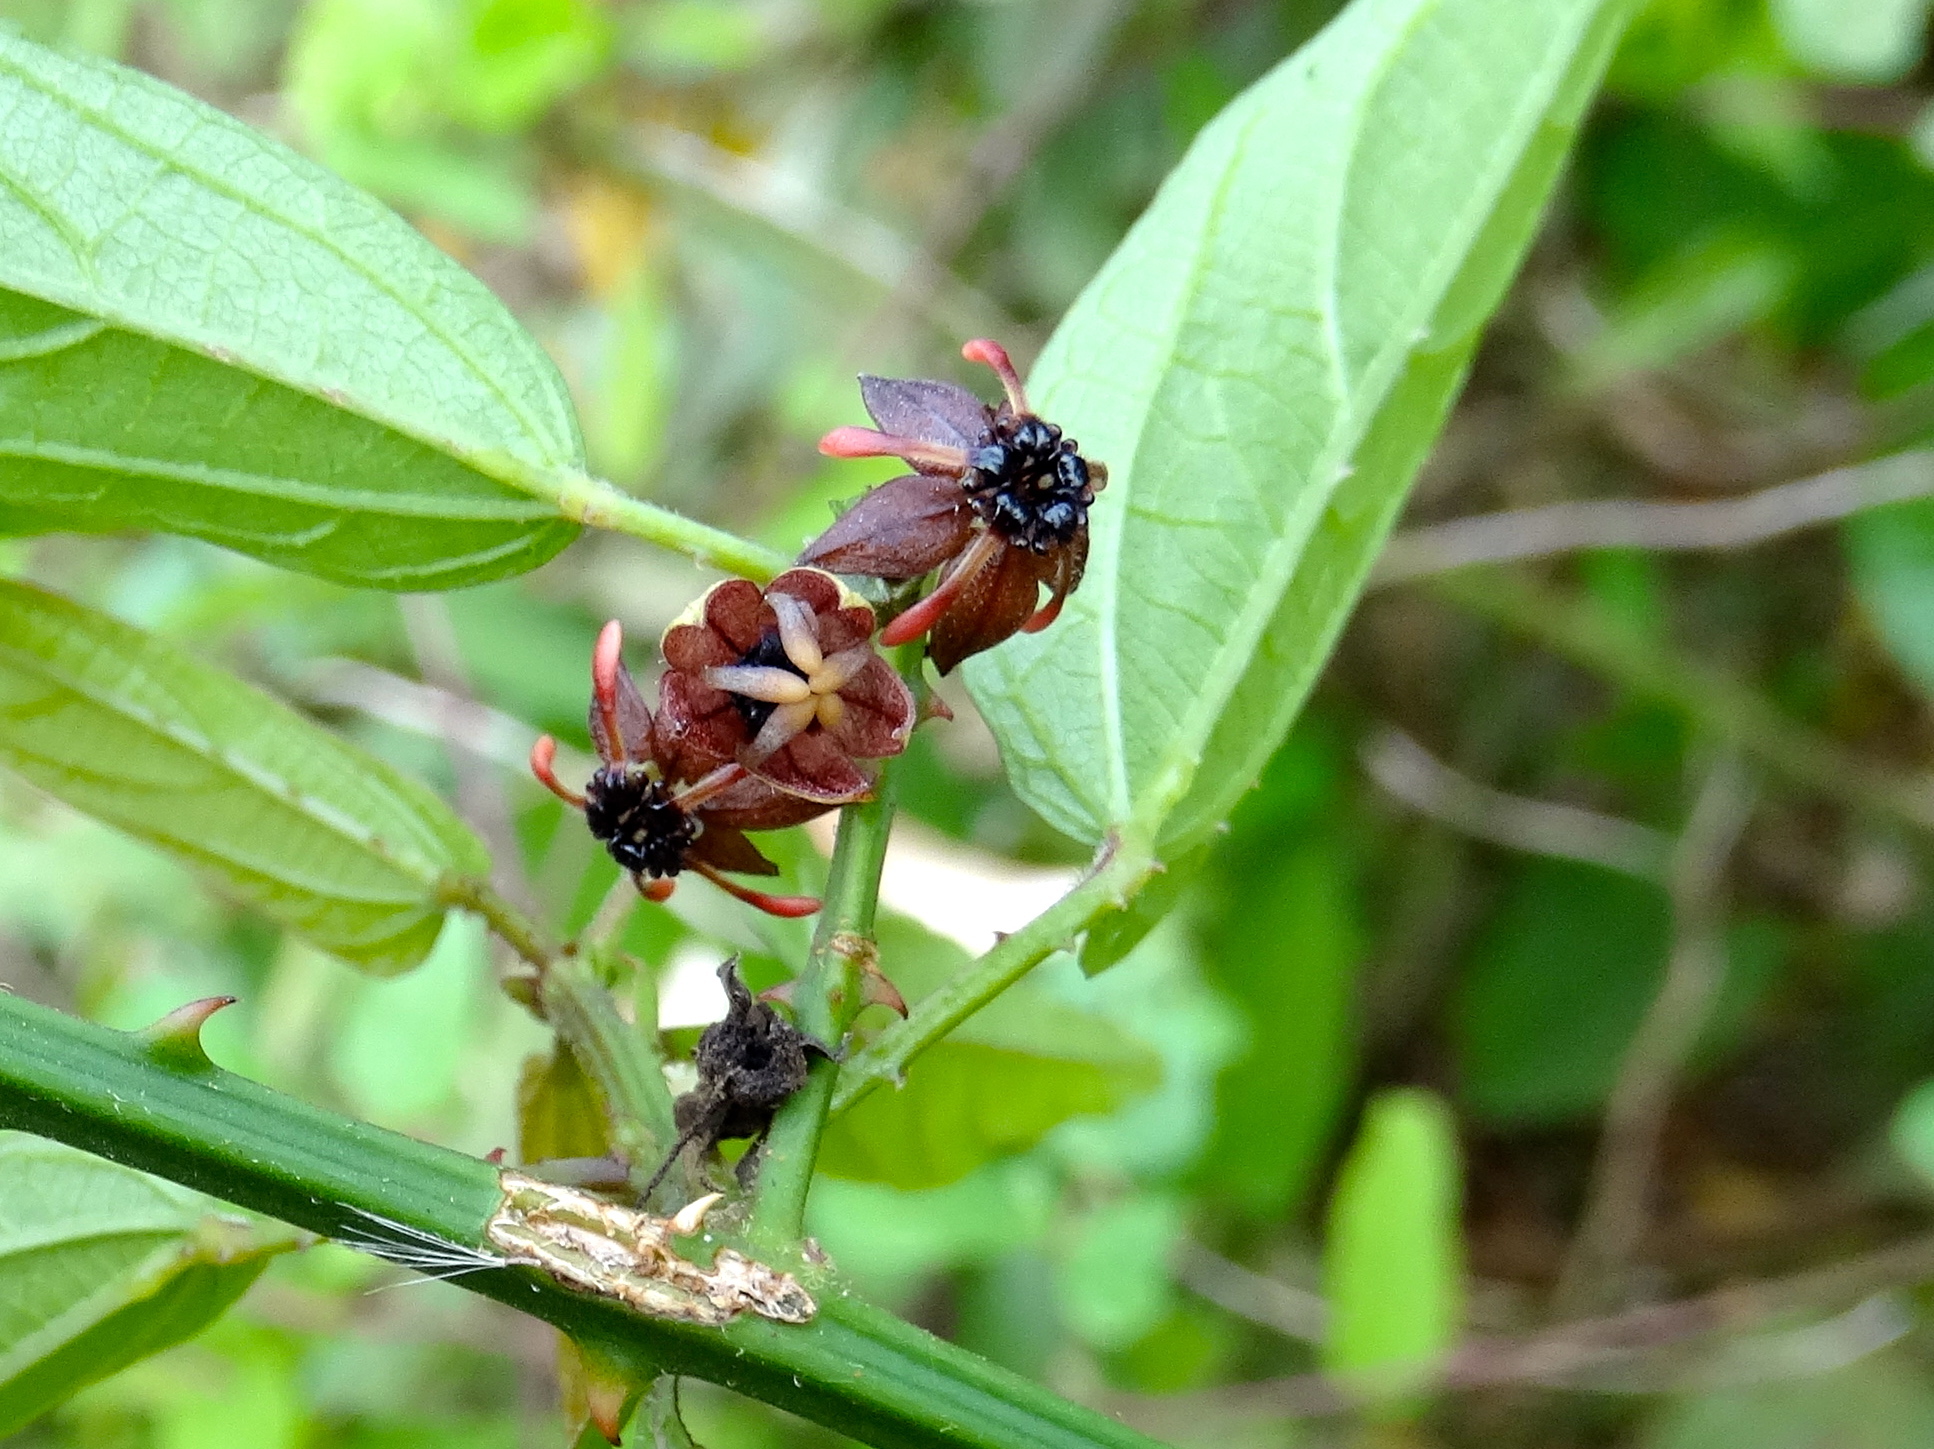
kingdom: Plantae
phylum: Tracheophyta
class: Magnoliopsida
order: Malvales
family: Malvaceae
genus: Byttneria
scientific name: Byttneria aculeata
